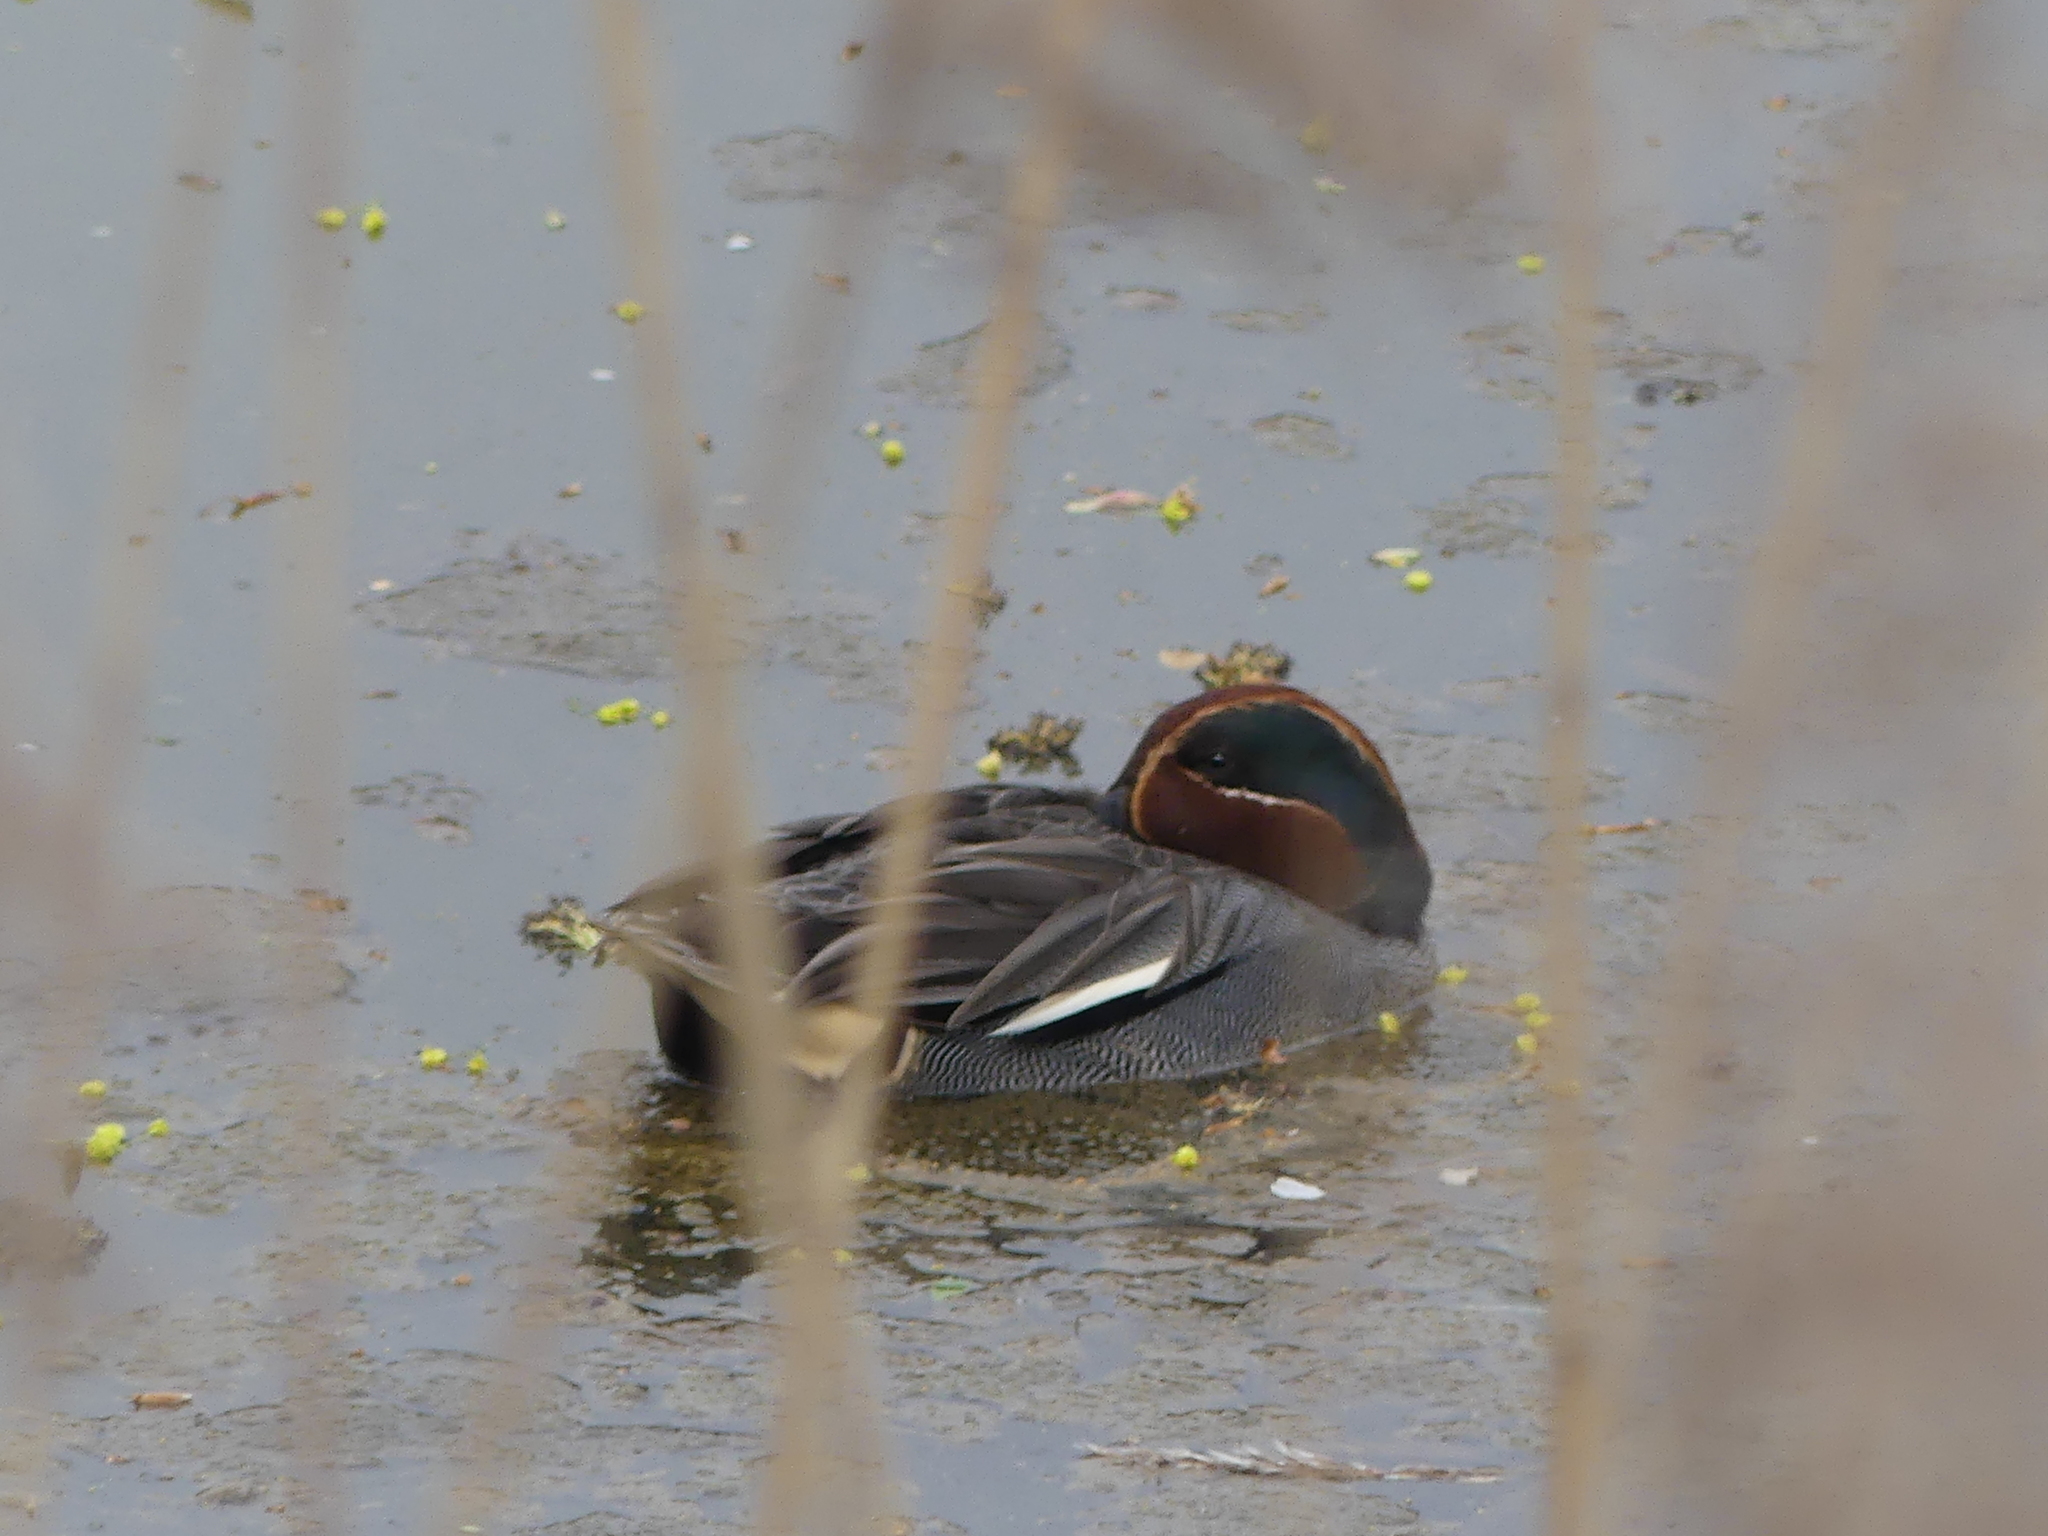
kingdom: Animalia
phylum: Chordata
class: Aves
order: Anseriformes
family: Anatidae
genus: Anas
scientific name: Anas crecca
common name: Eurasian teal
